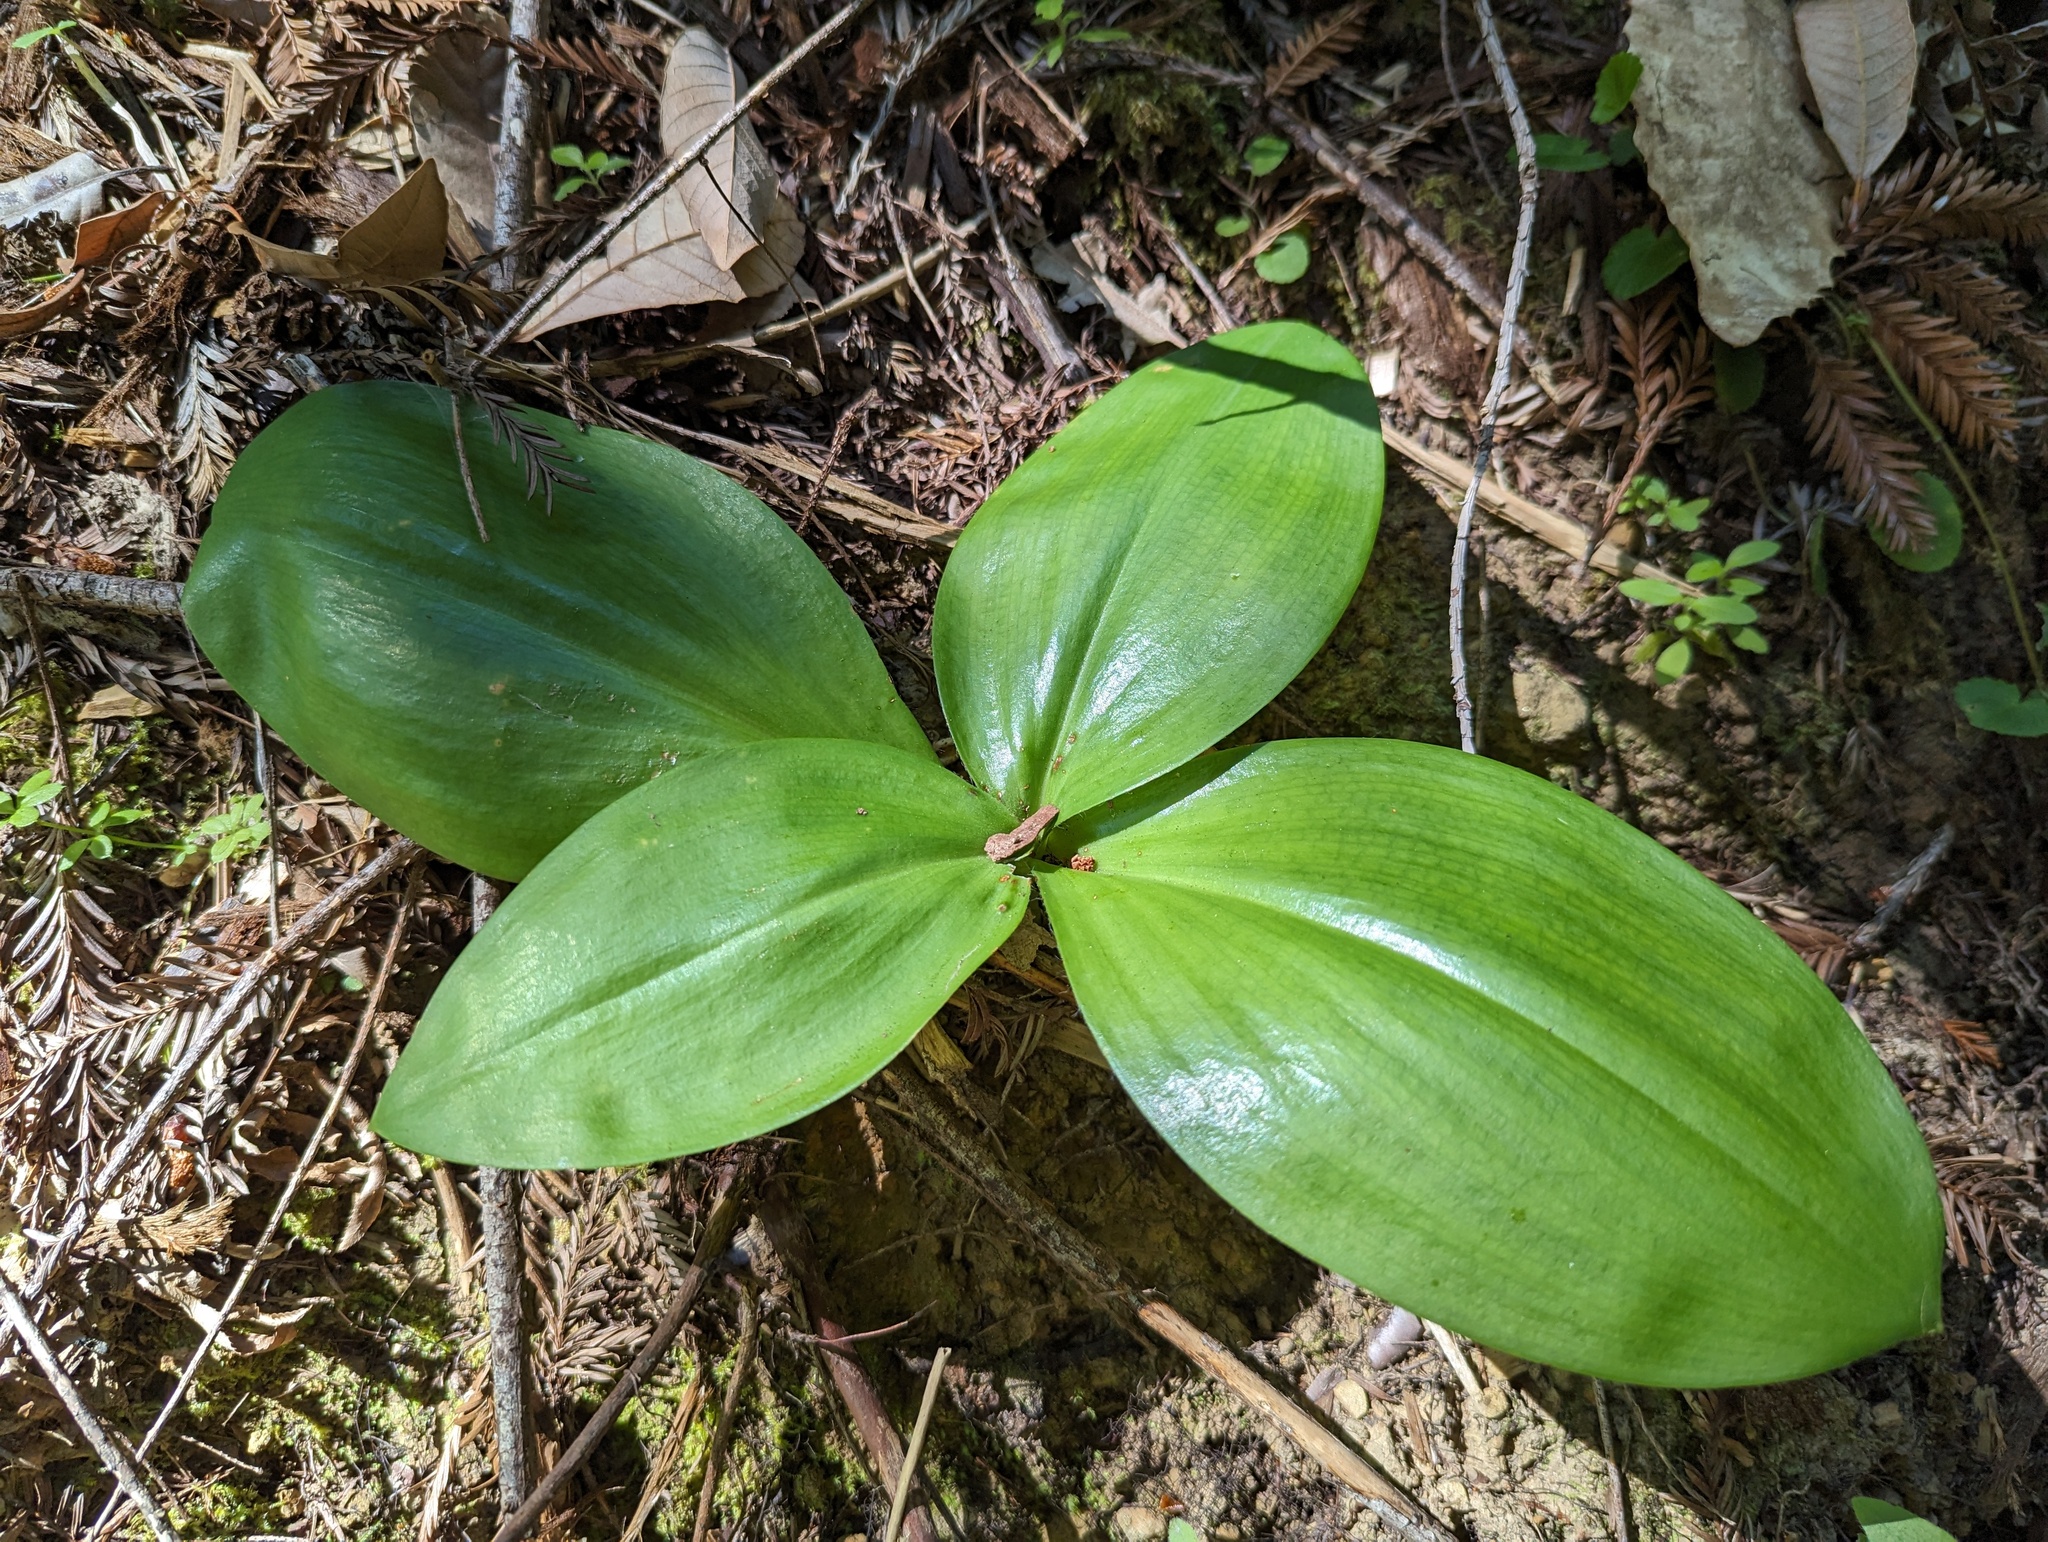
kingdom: Plantae
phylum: Tracheophyta
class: Liliopsida
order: Liliales
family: Liliaceae
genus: Clintonia
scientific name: Clintonia andrewsiana
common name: Red clintonia
